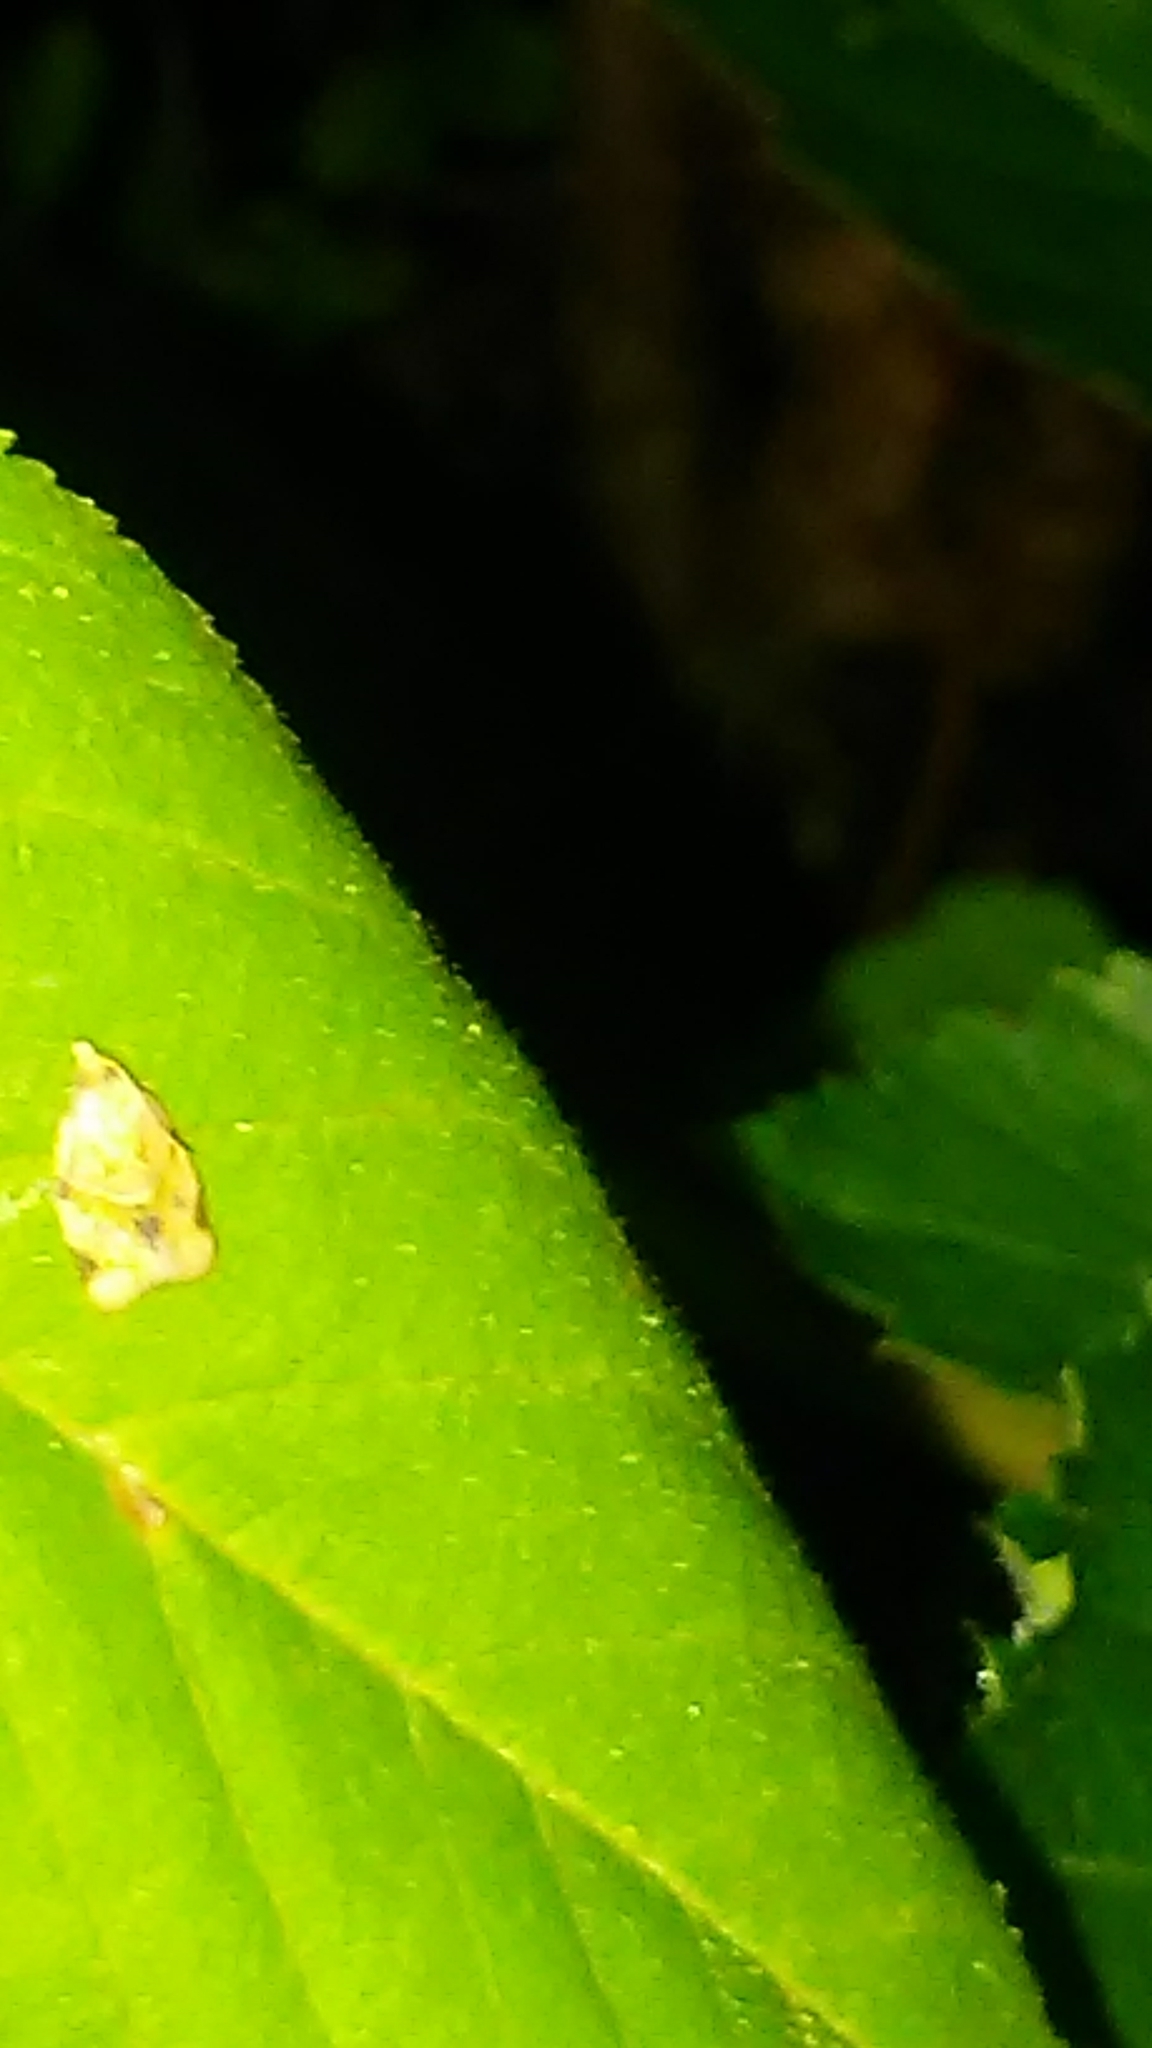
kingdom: Animalia
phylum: Arthropoda
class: Insecta
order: Lepidoptera
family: Tortricidae
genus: Clepsis
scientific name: Clepsis peritana
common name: Garden tortrix
